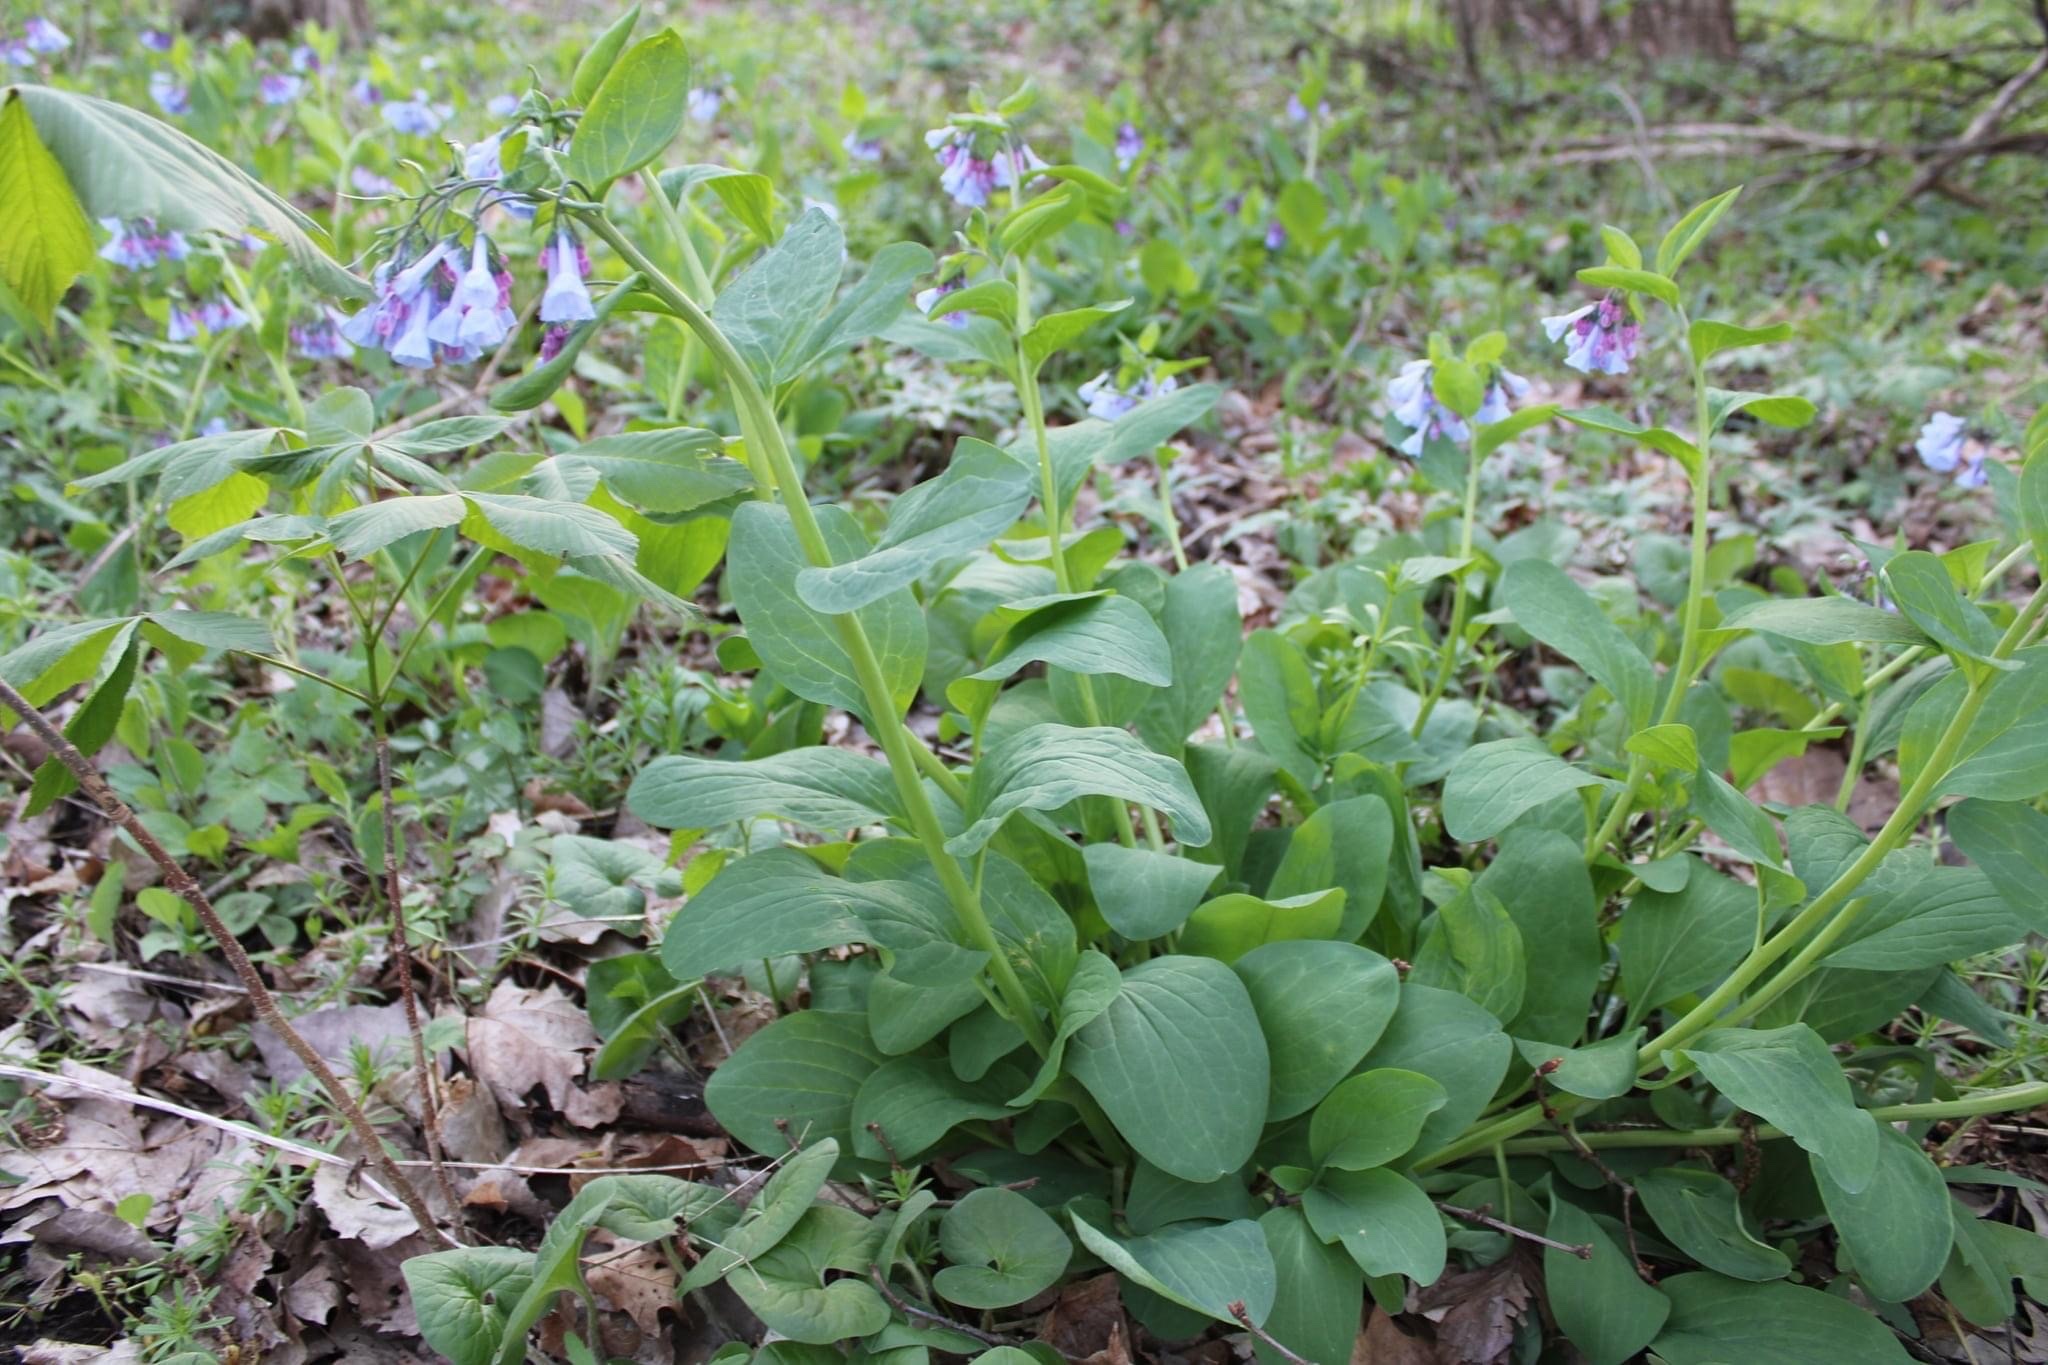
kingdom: Plantae
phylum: Tracheophyta
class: Magnoliopsida
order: Boraginales
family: Boraginaceae
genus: Mertensia
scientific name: Mertensia virginica
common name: Virginia bluebells
